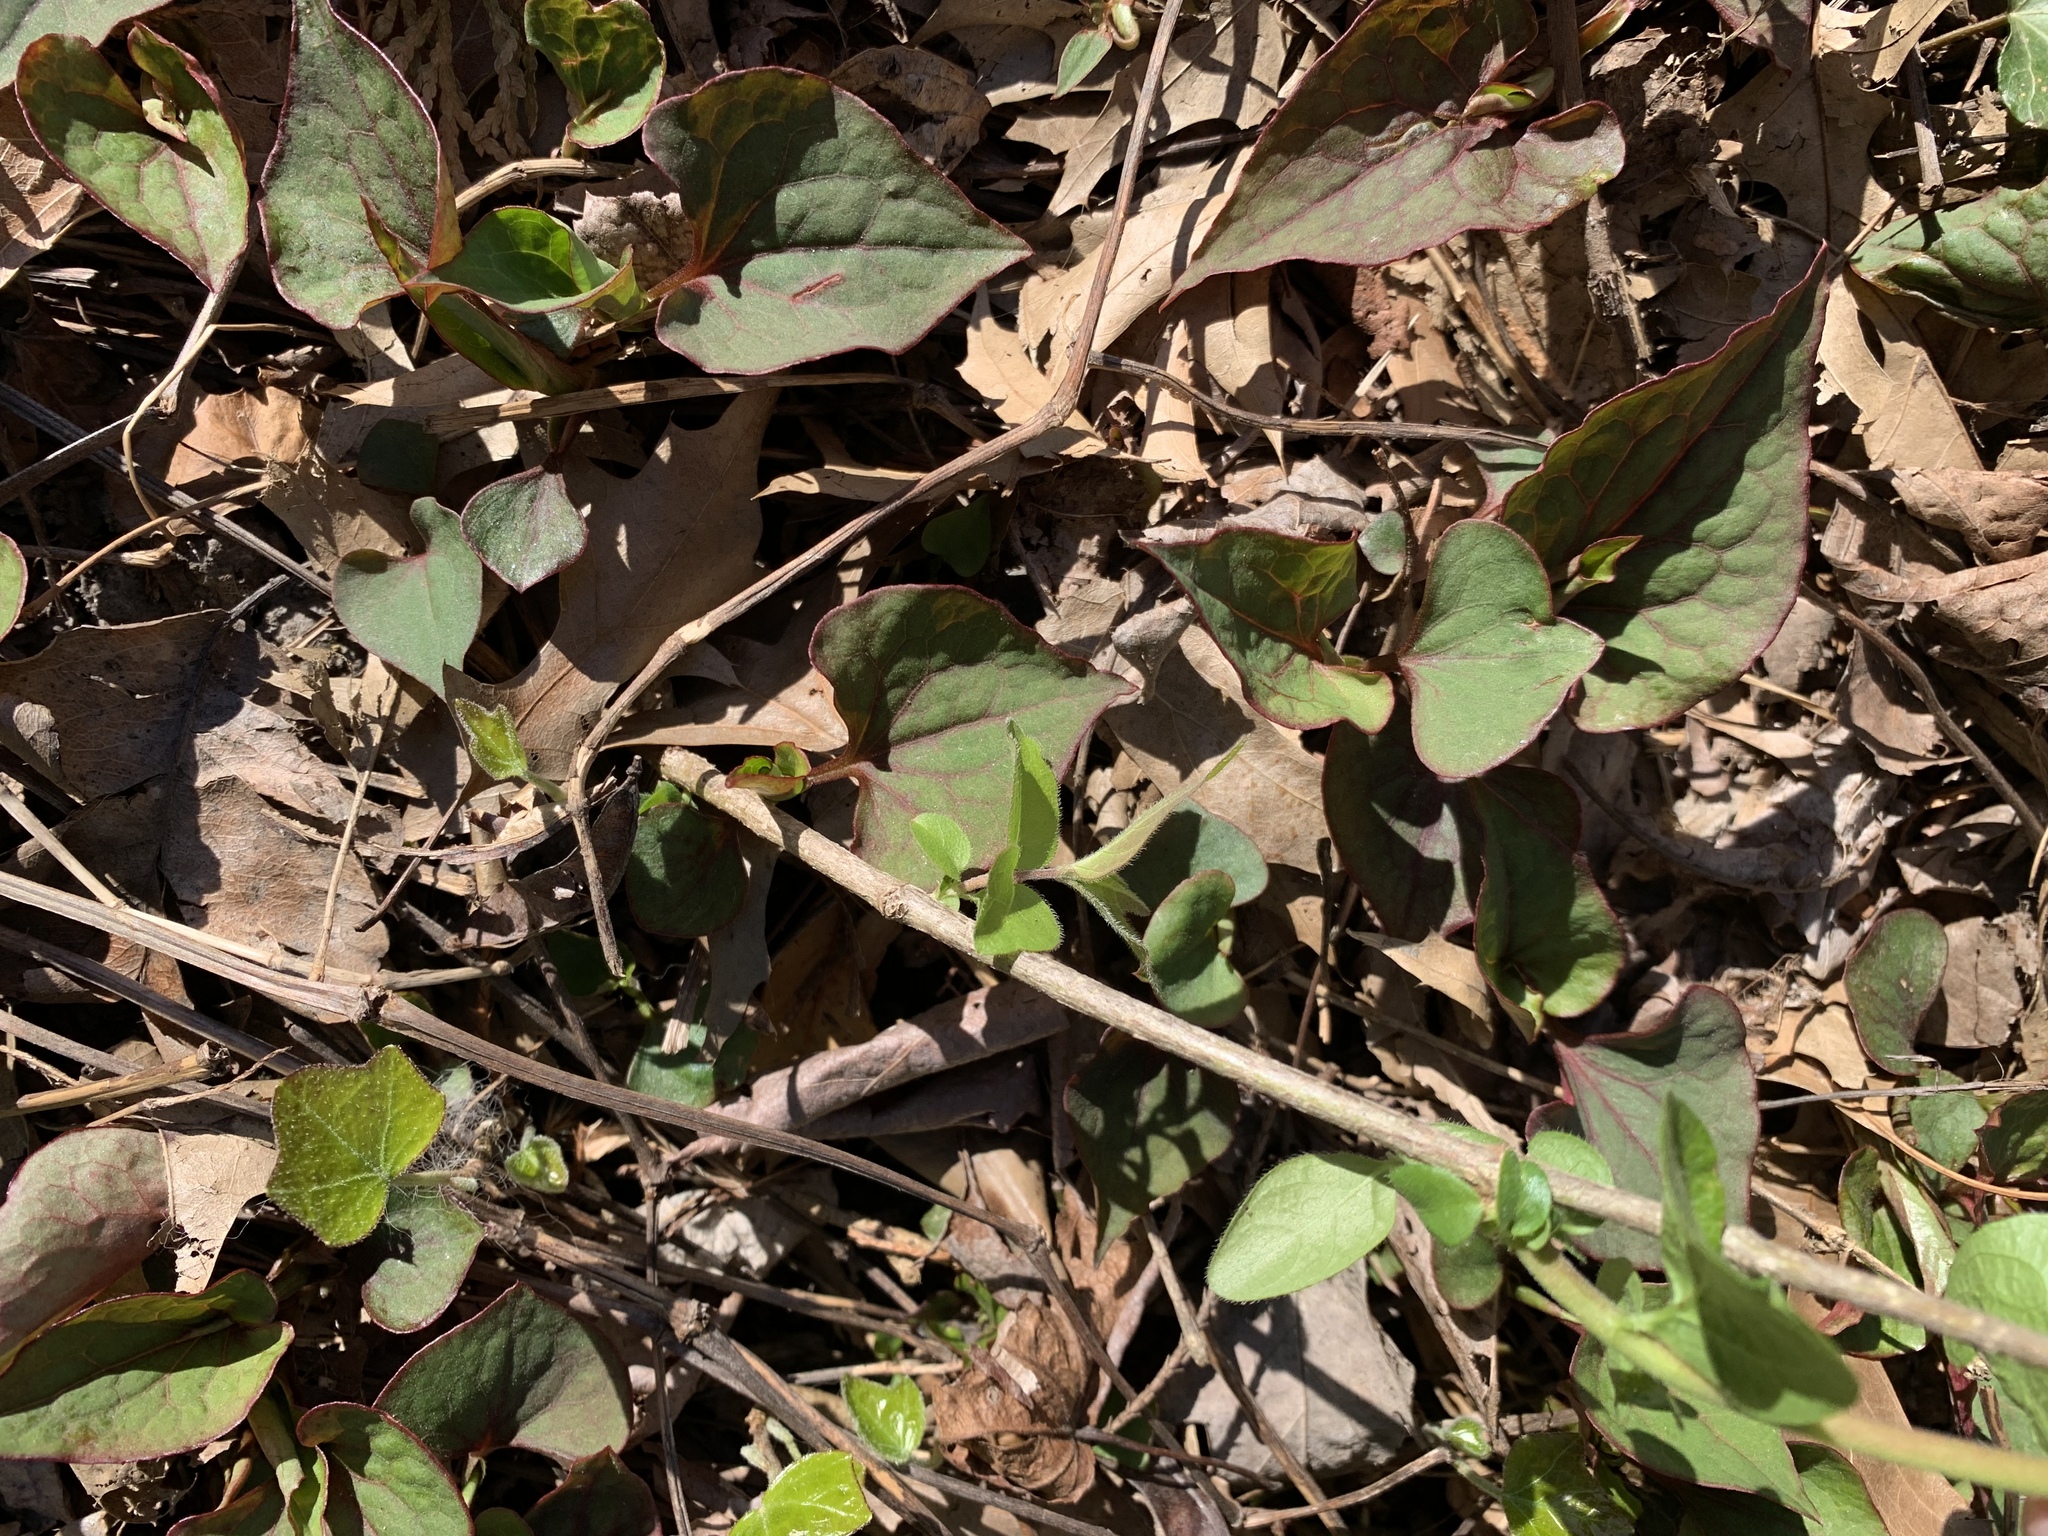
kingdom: Plantae
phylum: Tracheophyta
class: Magnoliopsida
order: Dipsacales
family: Caprifoliaceae
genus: Lonicera
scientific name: Lonicera maackii
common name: Amur honeysuckle
